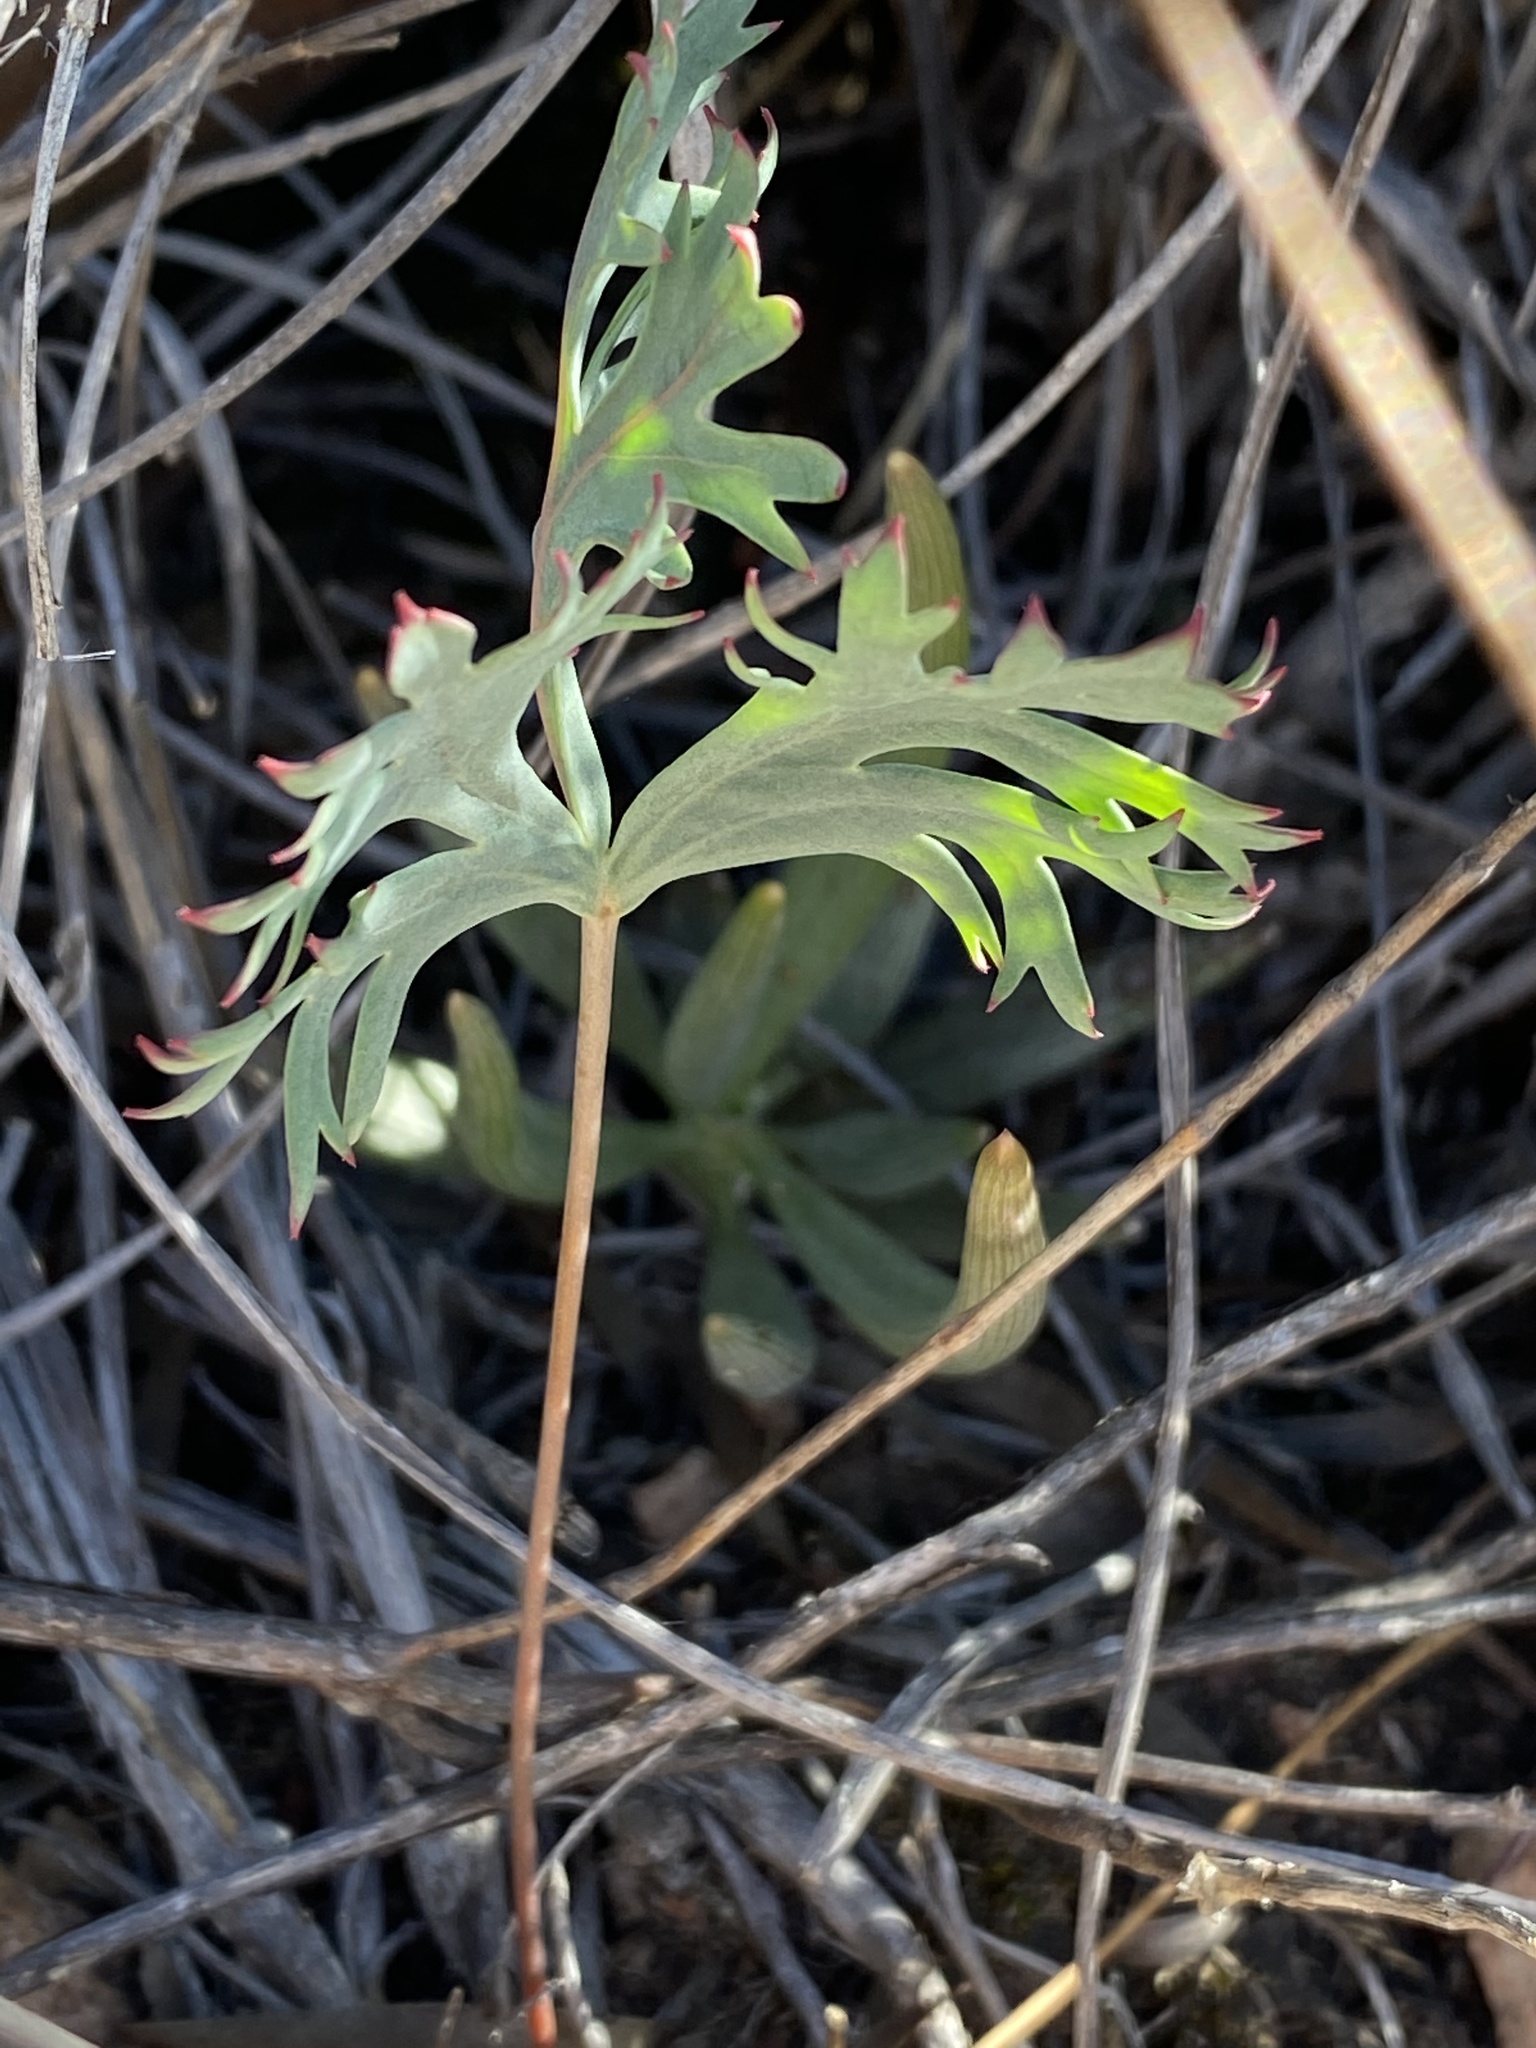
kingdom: Plantae
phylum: Tracheophyta
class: Magnoliopsida
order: Geraniales
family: Geraniaceae
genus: Pelargonium
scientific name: Pelargonium pillansii
